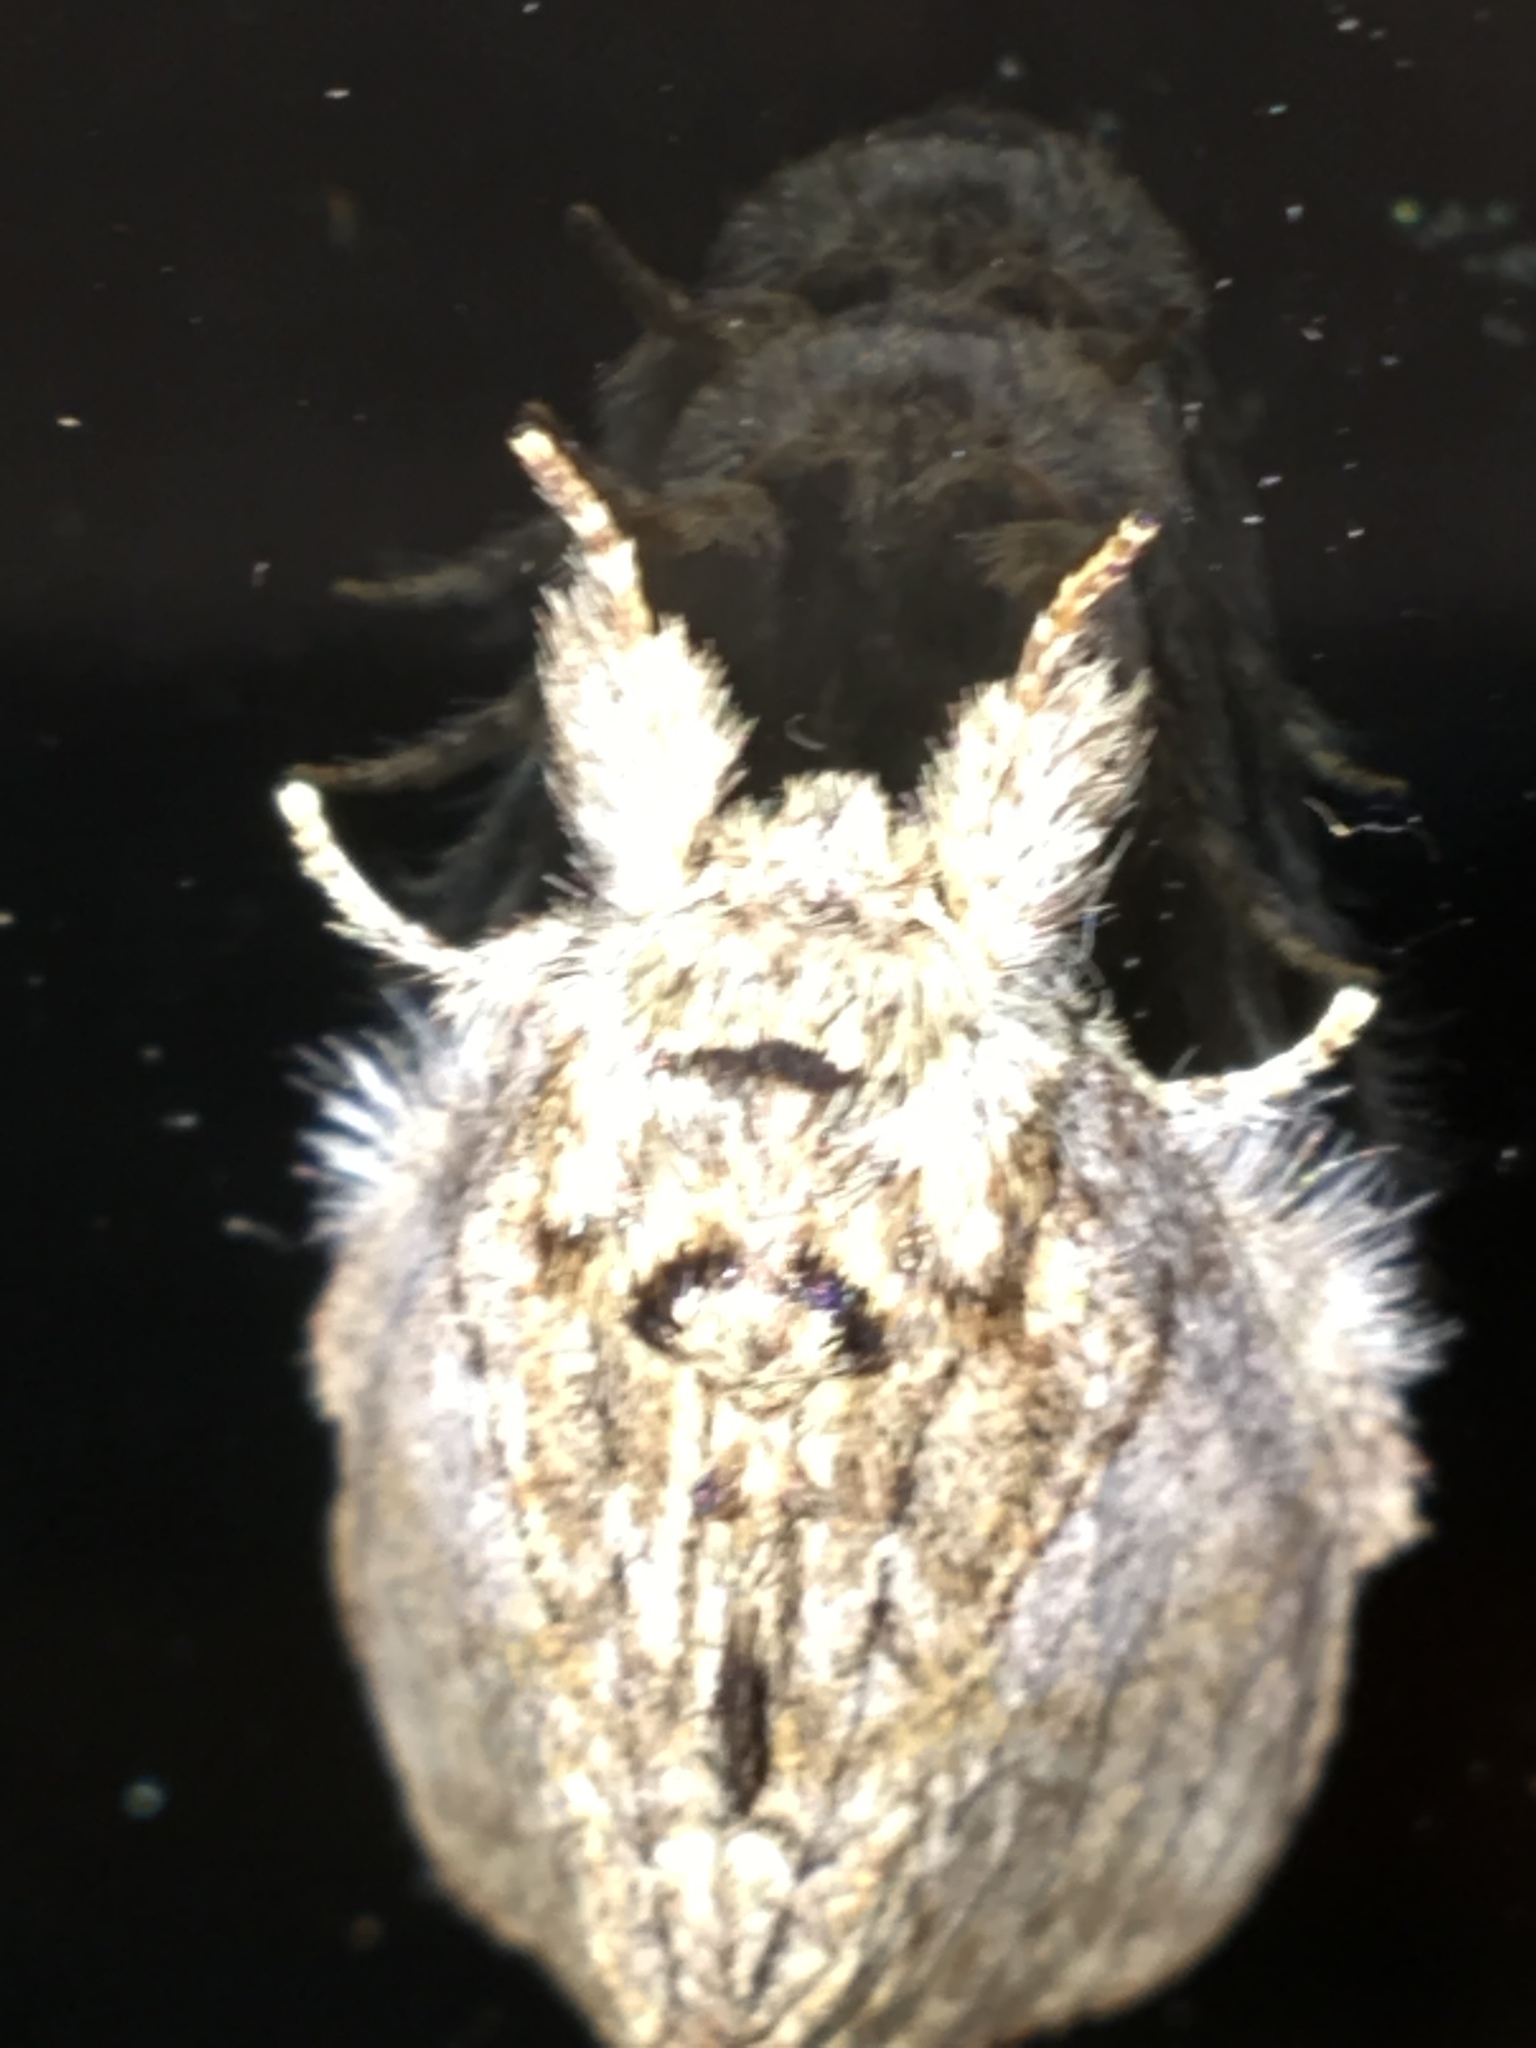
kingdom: Animalia
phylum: Arthropoda
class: Insecta
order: Lepidoptera
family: Notodontidae
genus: Peridea
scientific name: Peridea basitriens
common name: Oval-based prominent
